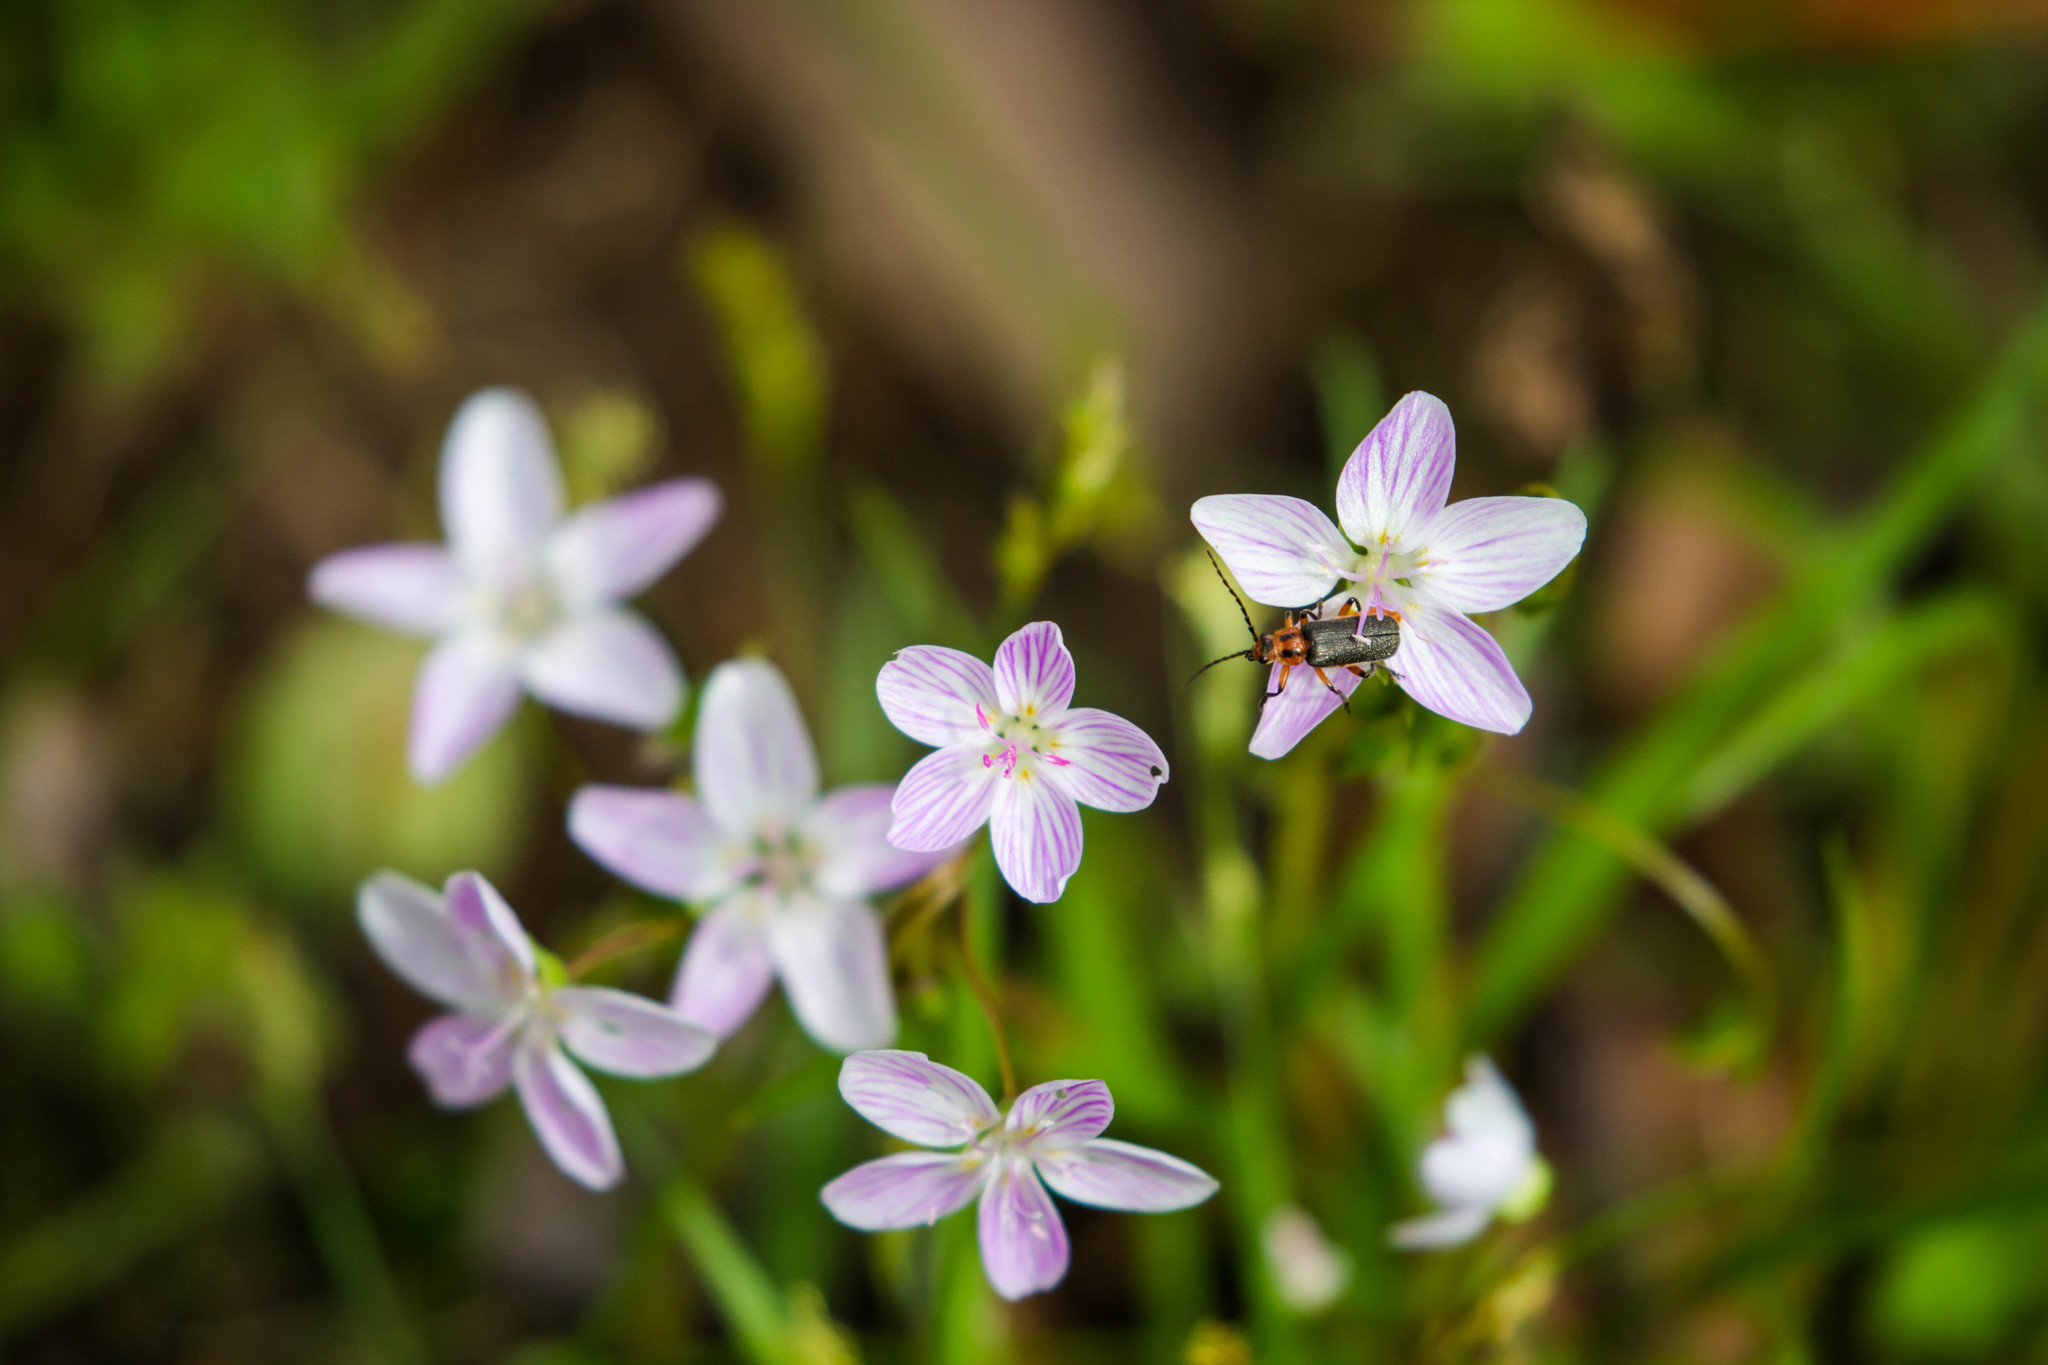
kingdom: Animalia
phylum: Arthropoda
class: Insecta
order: Coleoptera
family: Cantharidae
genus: Atalantycha
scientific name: Atalantycha bilineata
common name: Two-lined leatherwing
